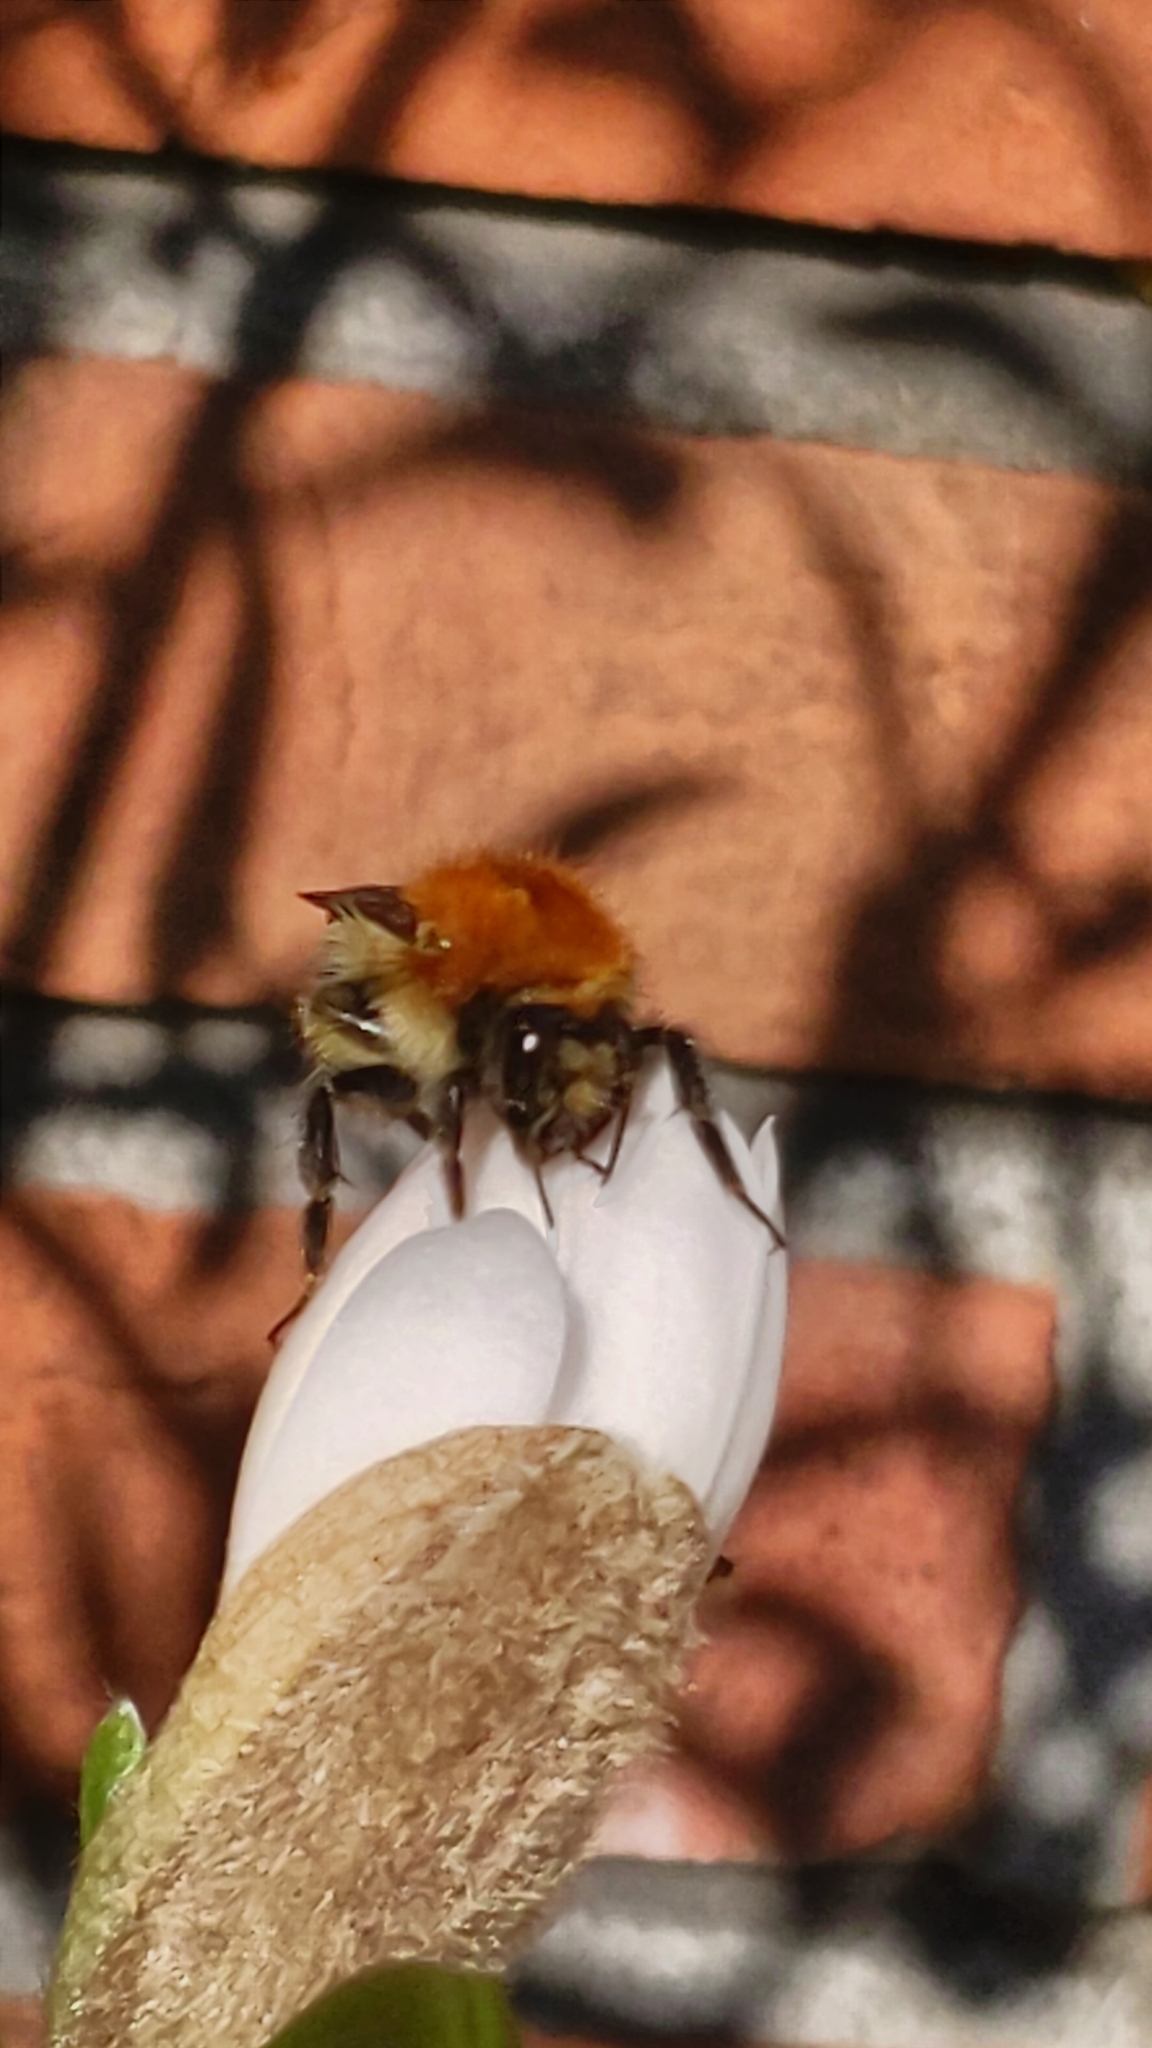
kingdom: Animalia
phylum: Arthropoda
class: Insecta
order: Hymenoptera
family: Apidae
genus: Bombus
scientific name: Bombus pascuorum
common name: Common carder bee
